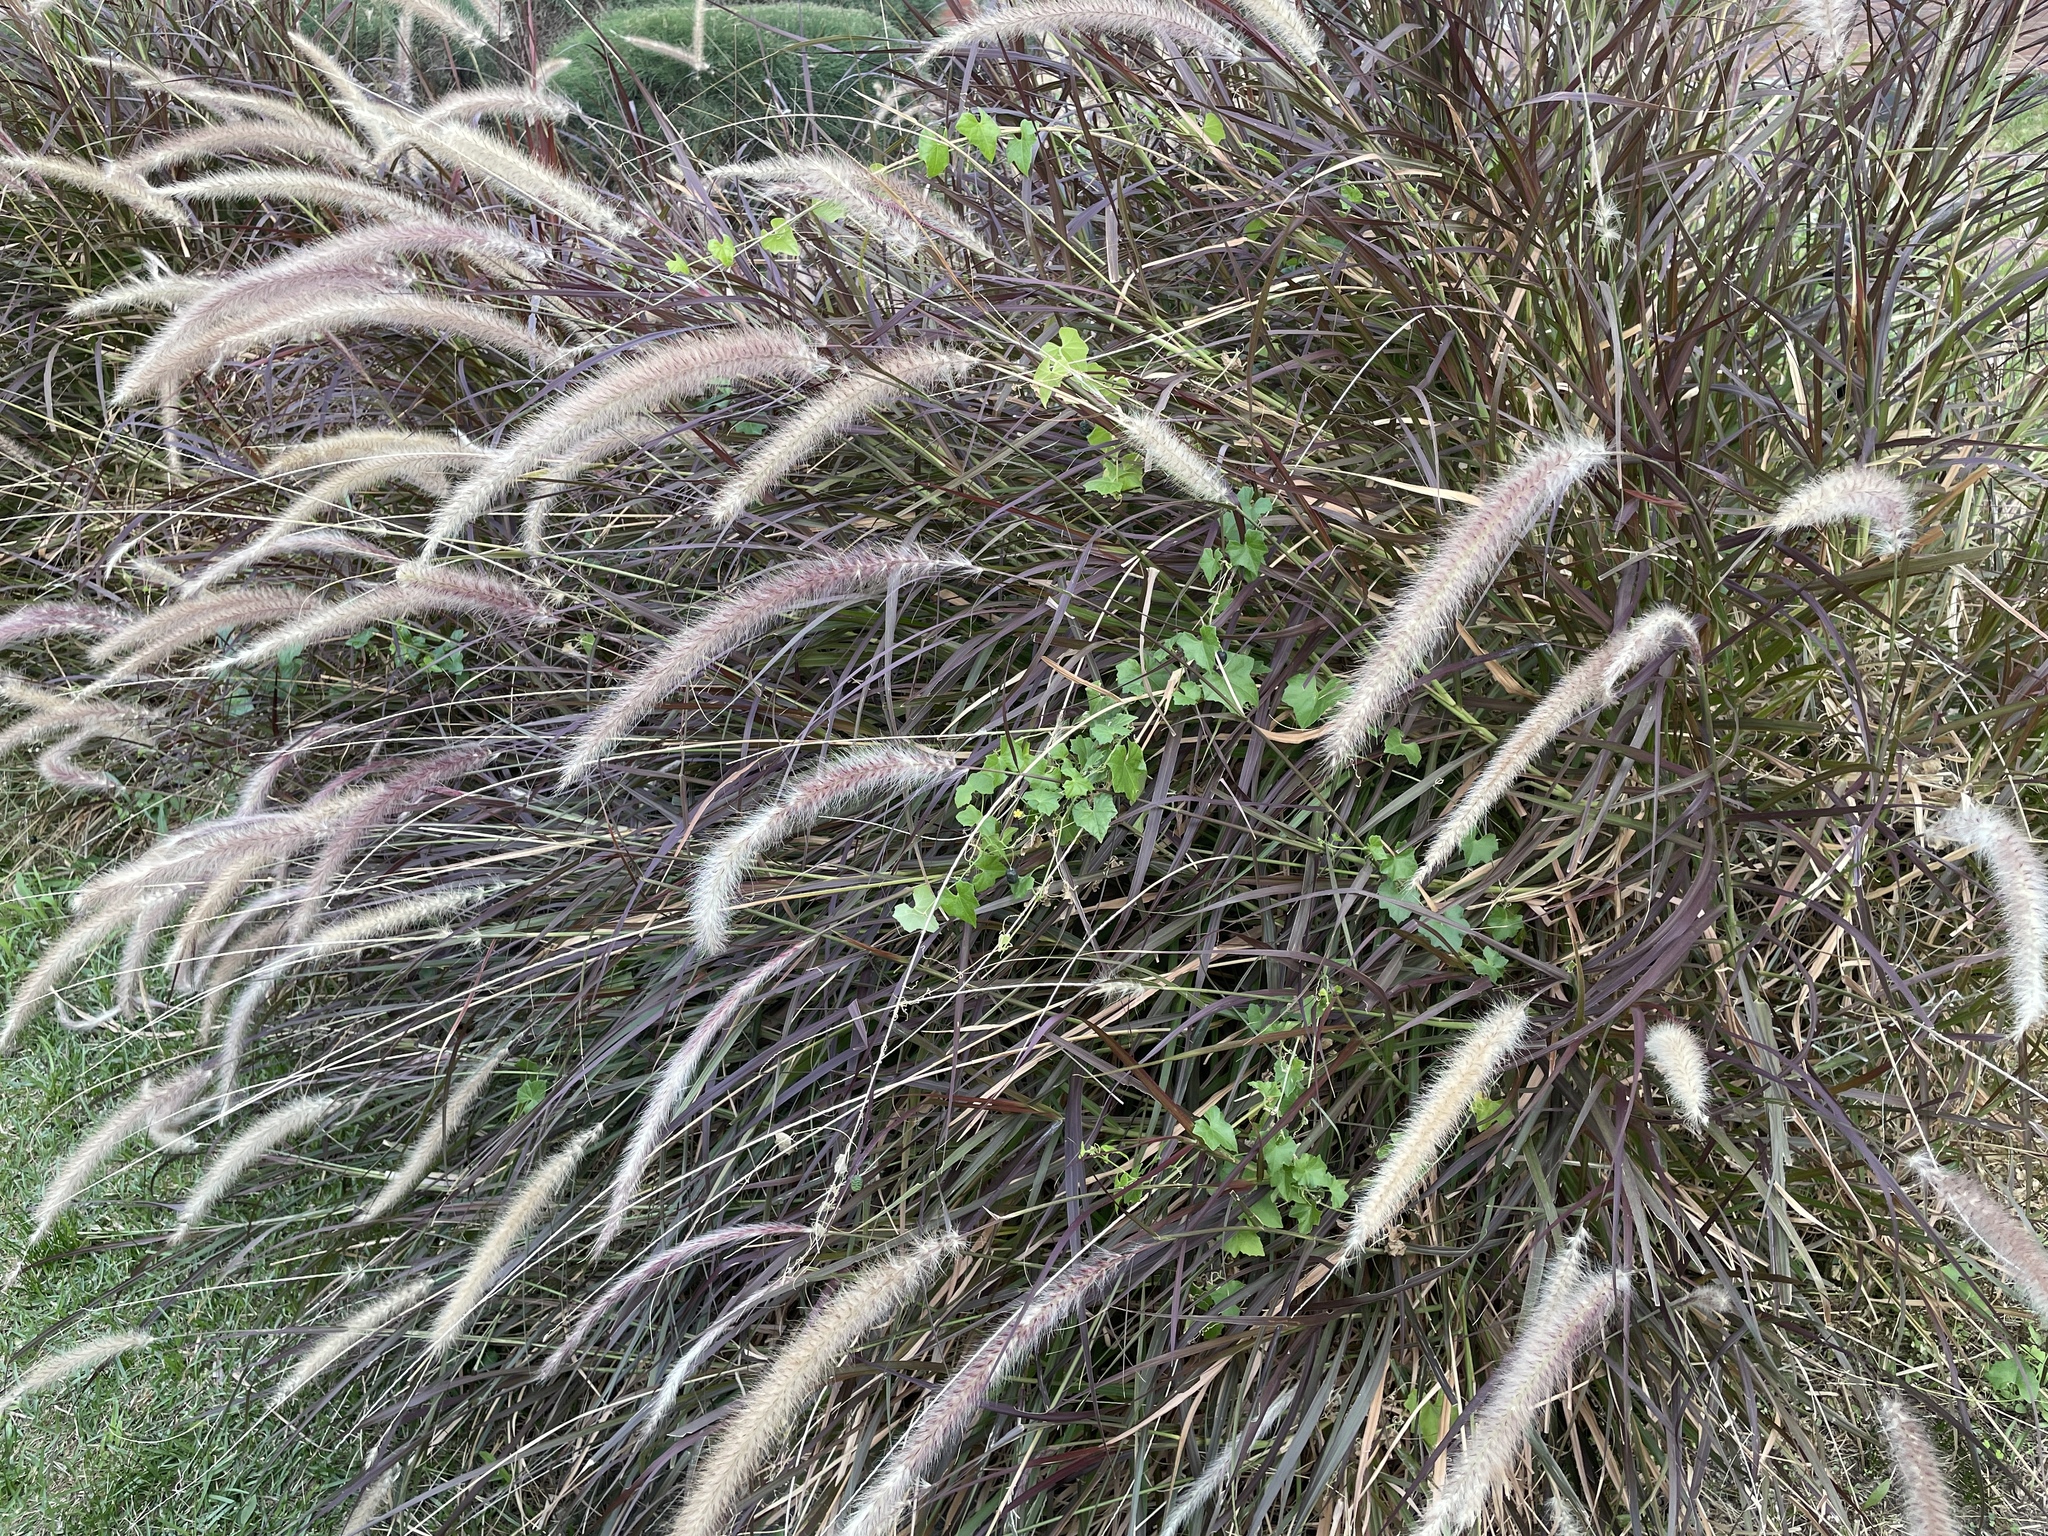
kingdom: Plantae
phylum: Tracheophyta
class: Magnoliopsida
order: Cucurbitales
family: Cucurbitaceae
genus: Melothria
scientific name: Melothria pendula
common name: Creeping-cucumber
